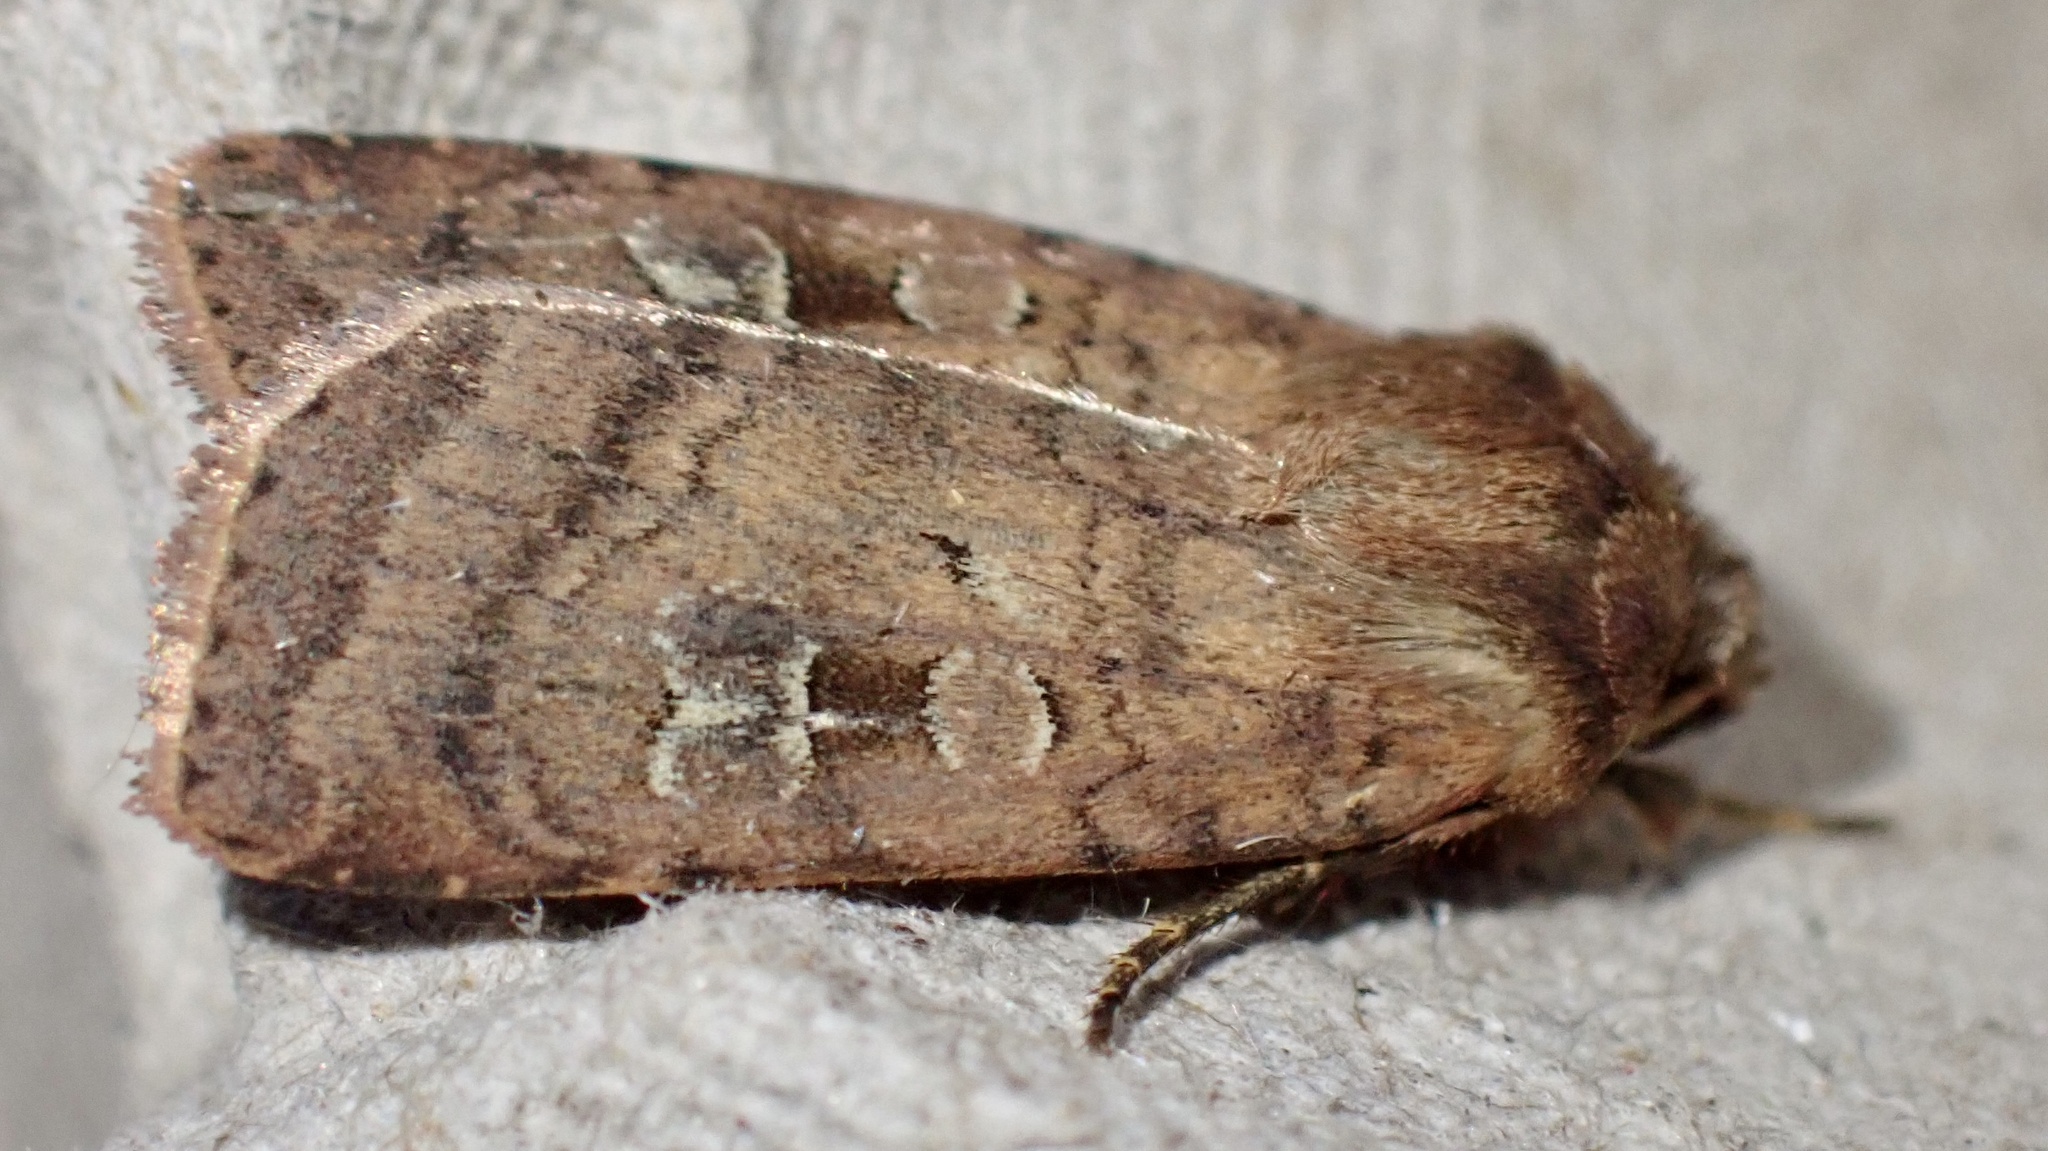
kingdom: Animalia
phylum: Arthropoda
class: Insecta
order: Lepidoptera
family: Noctuidae
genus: Diarsia
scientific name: Diarsia rubi
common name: Small square-spot
